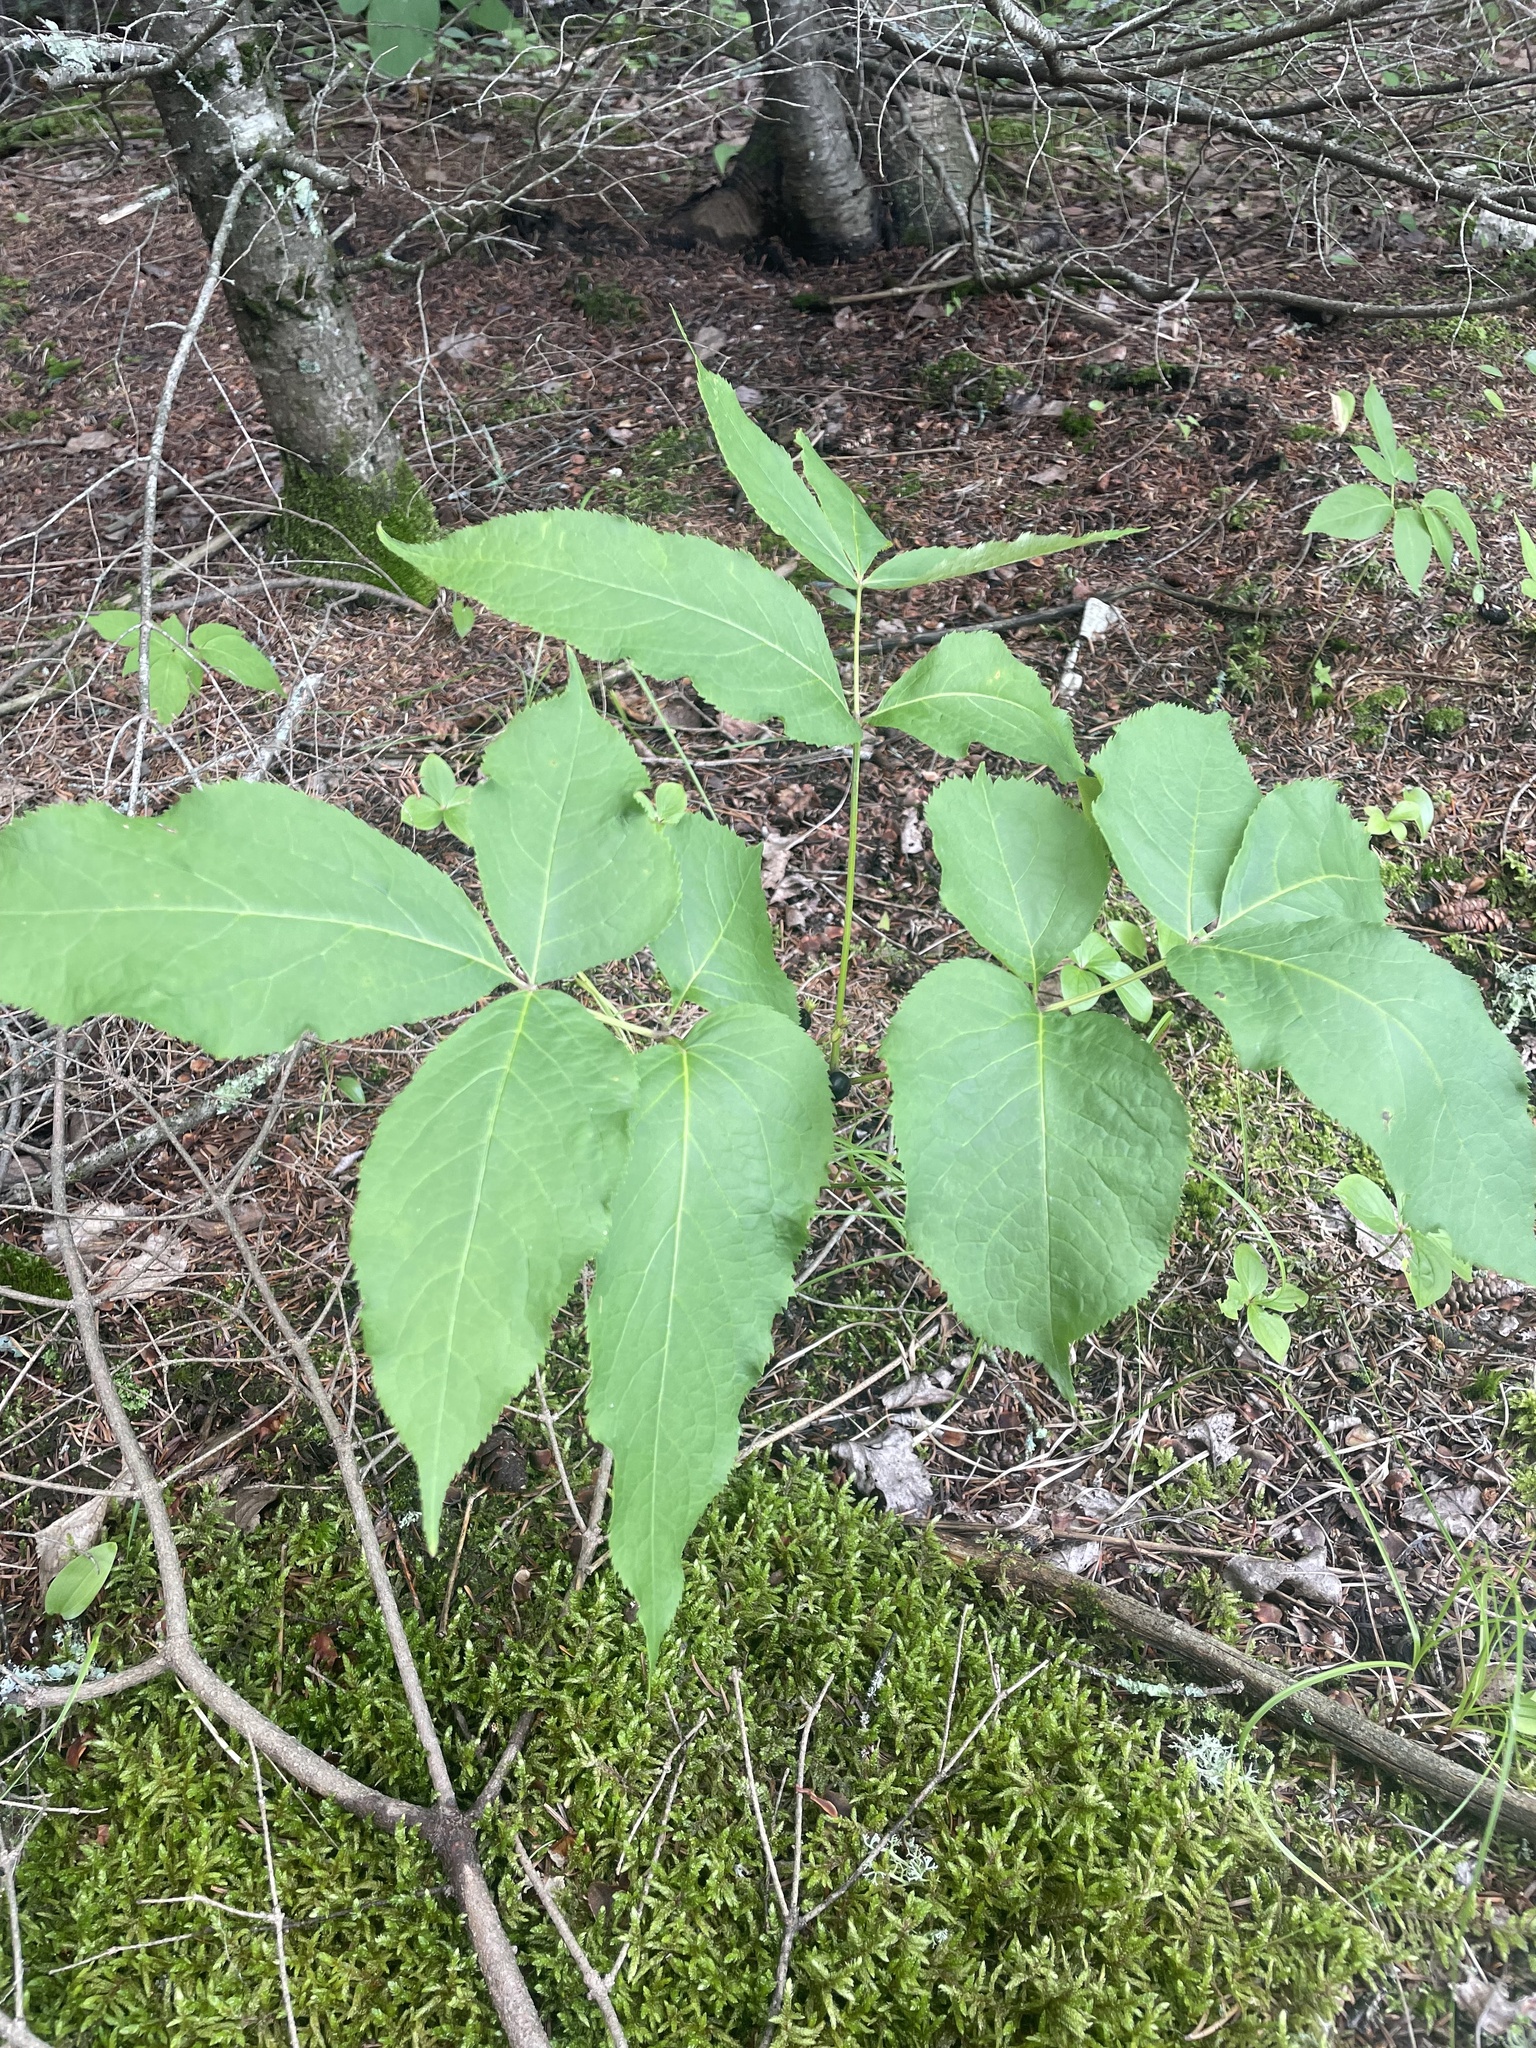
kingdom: Plantae
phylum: Tracheophyta
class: Magnoliopsida
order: Apiales
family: Araliaceae
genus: Aralia
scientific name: Aralia nudicaulis
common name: Wild sarsaparilla
